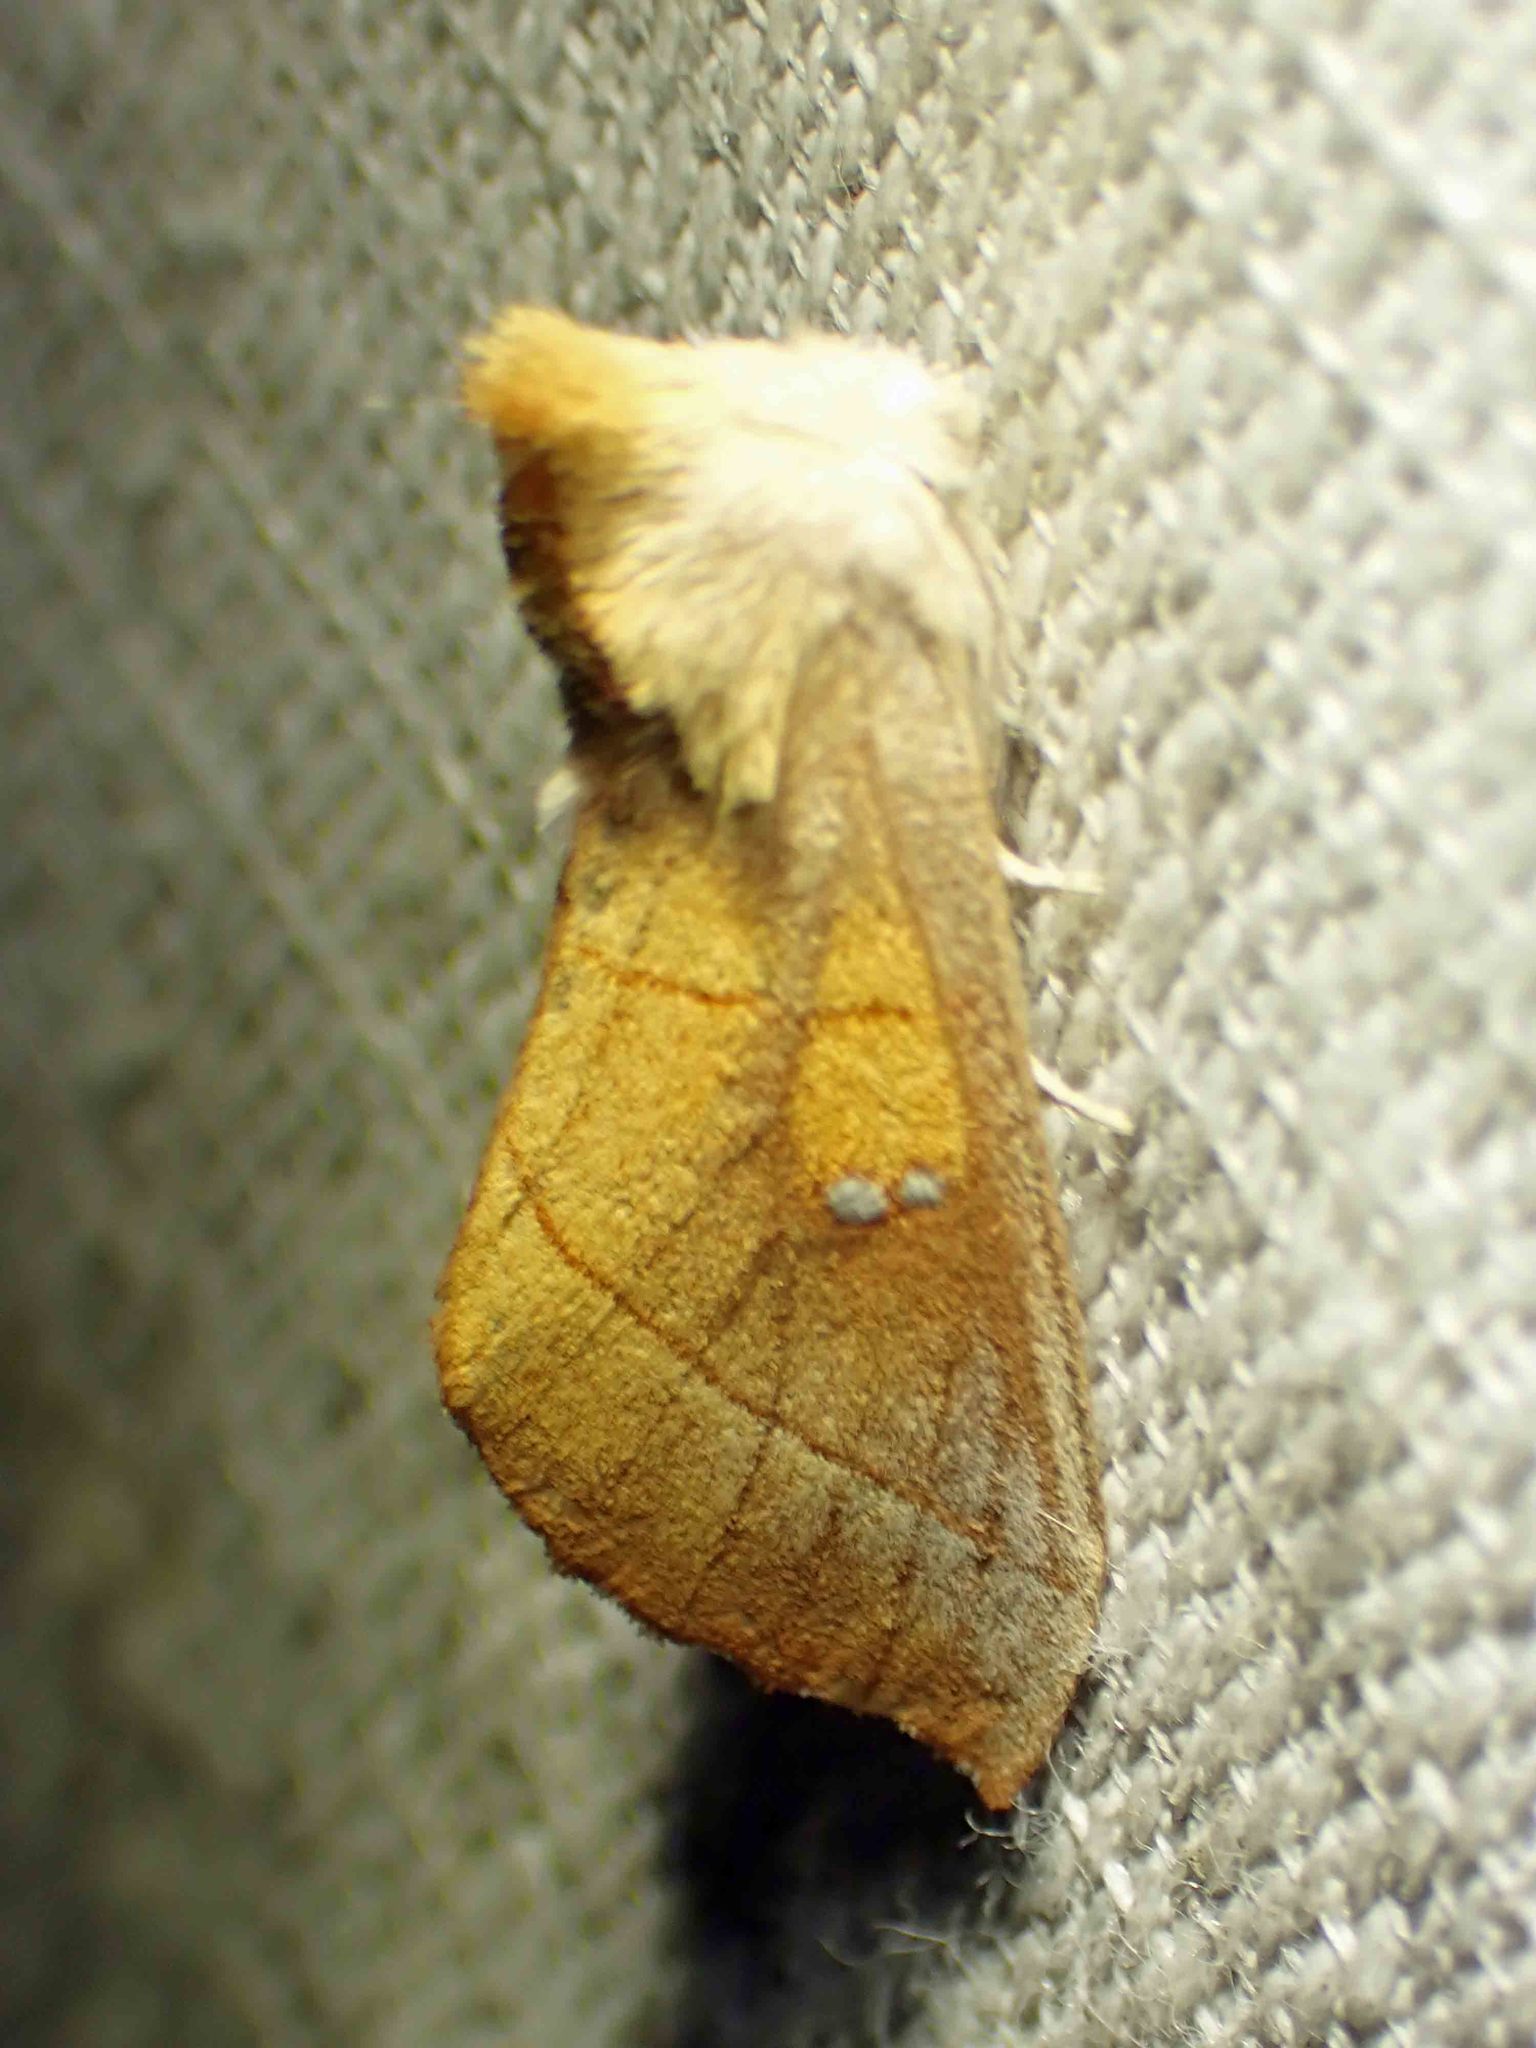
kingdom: Animalia
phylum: Arthropoda
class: Insecta
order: Lepidoptera
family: Notodontidae
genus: Nadata
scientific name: Nadata gibbosa
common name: White-dotted prominent
